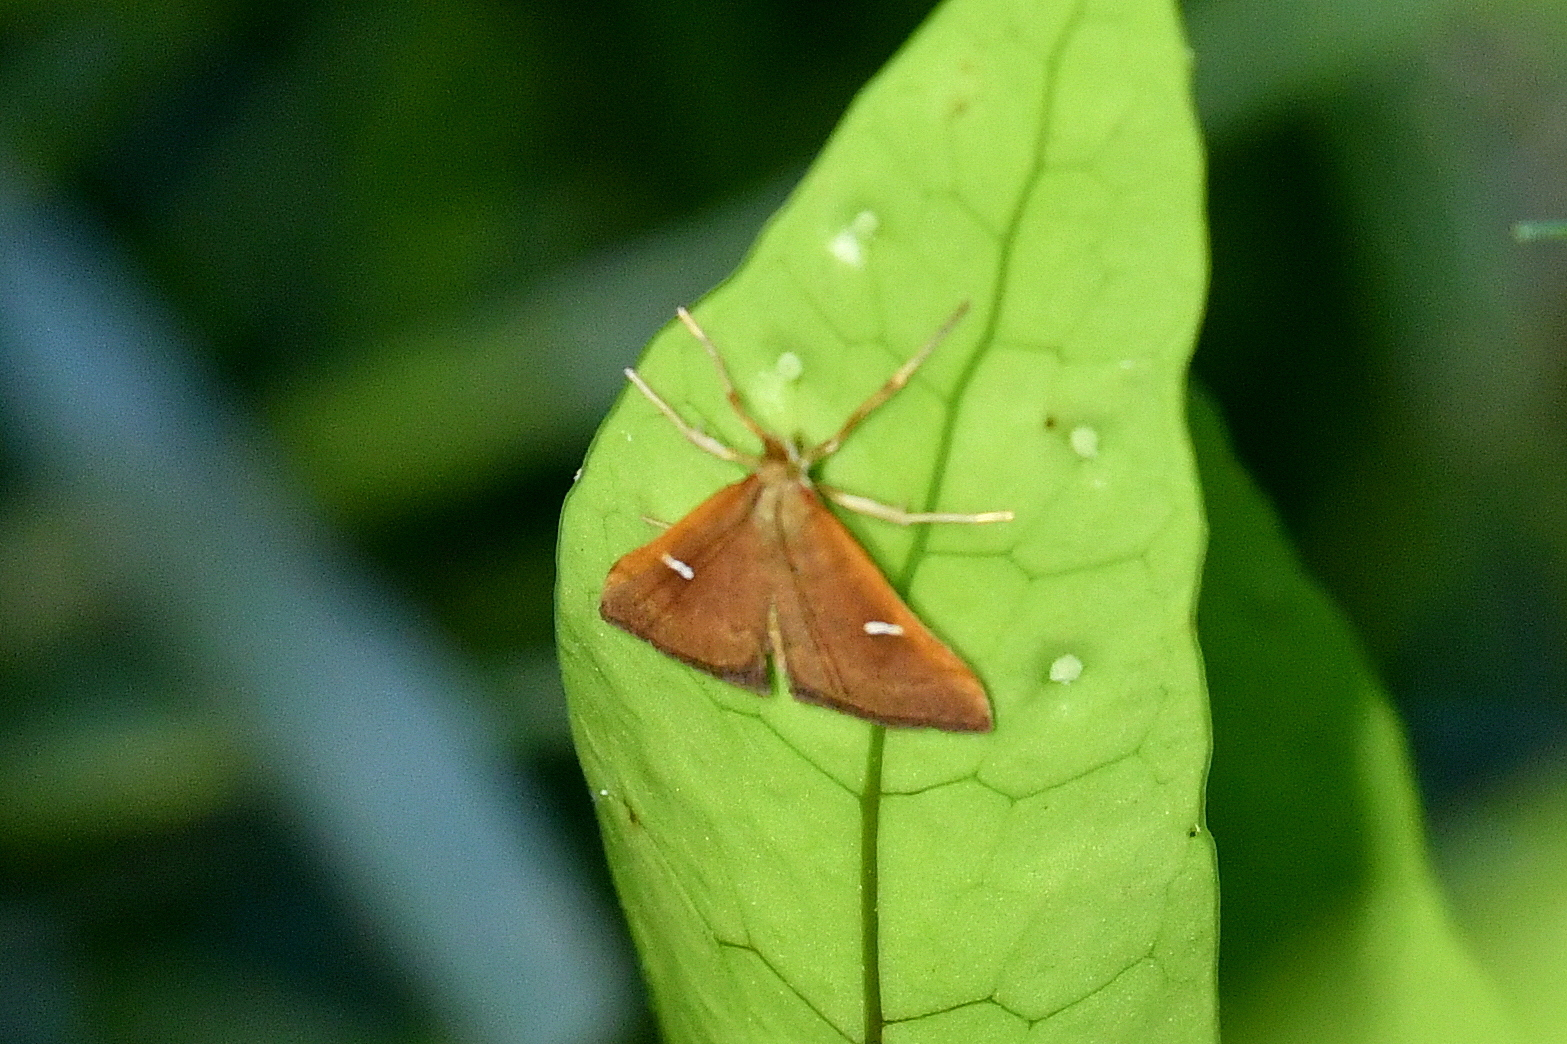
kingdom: Animalia
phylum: Arthropoda
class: Insecta
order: Lepidoptera
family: Crambidae
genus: Udea
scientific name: Udea notata
